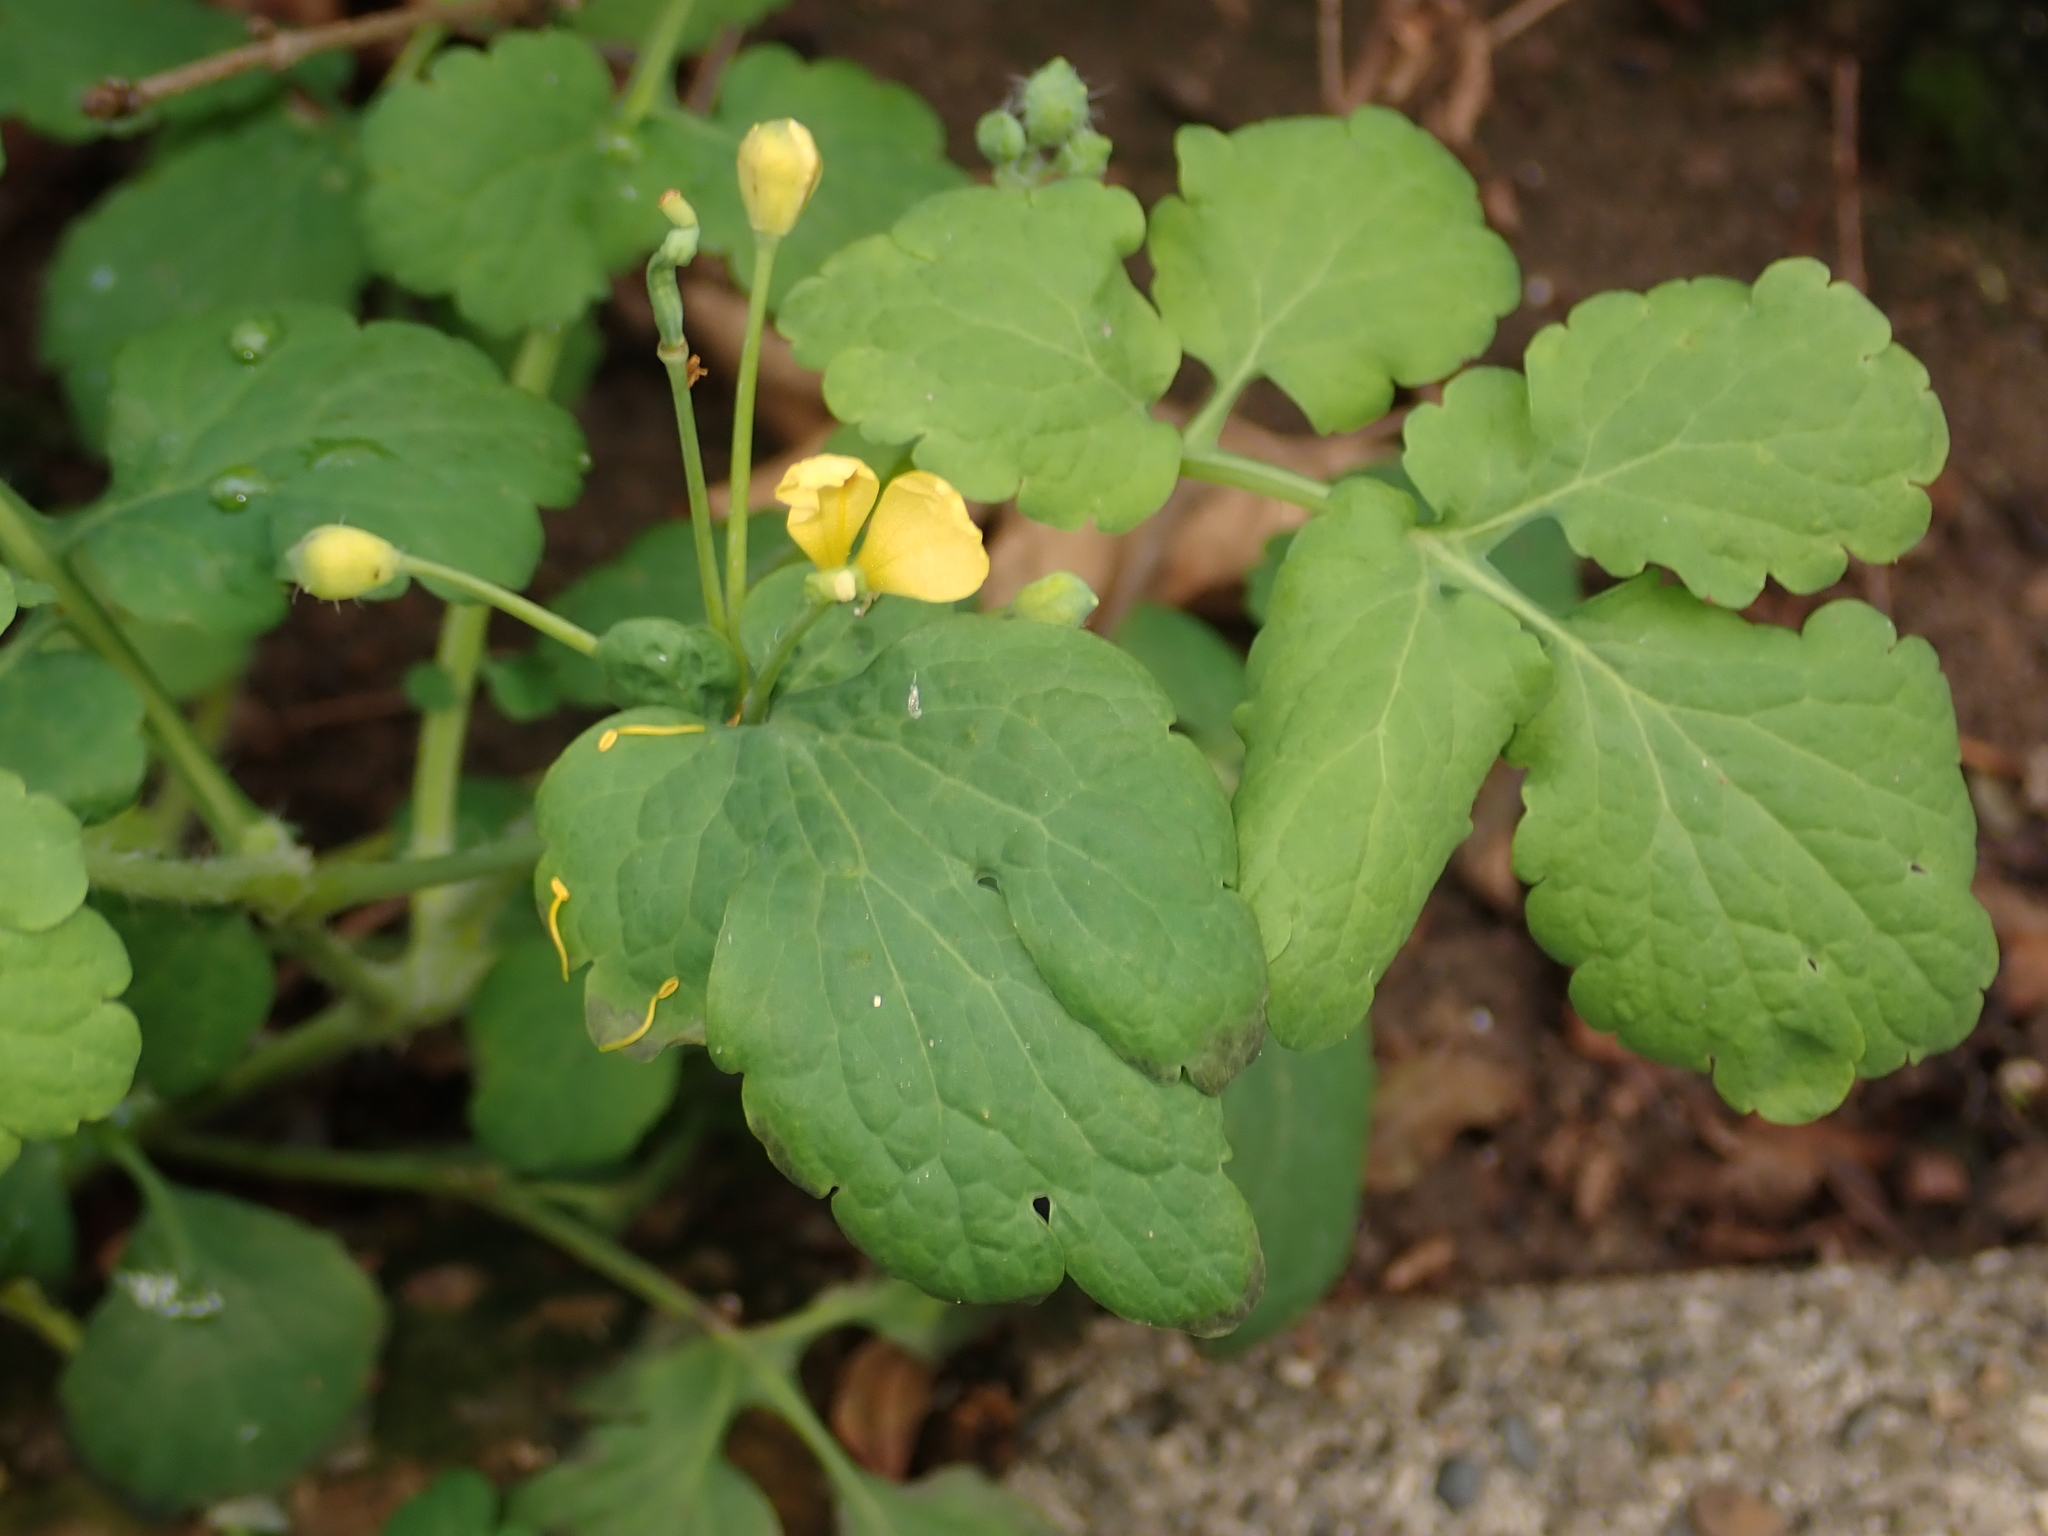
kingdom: Plantae
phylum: Tracheophyta
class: Magnoliopsida
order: Ranunculales
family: Papaveraceae
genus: Chelidonium
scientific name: Chelidonium majus
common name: Greater celandine
